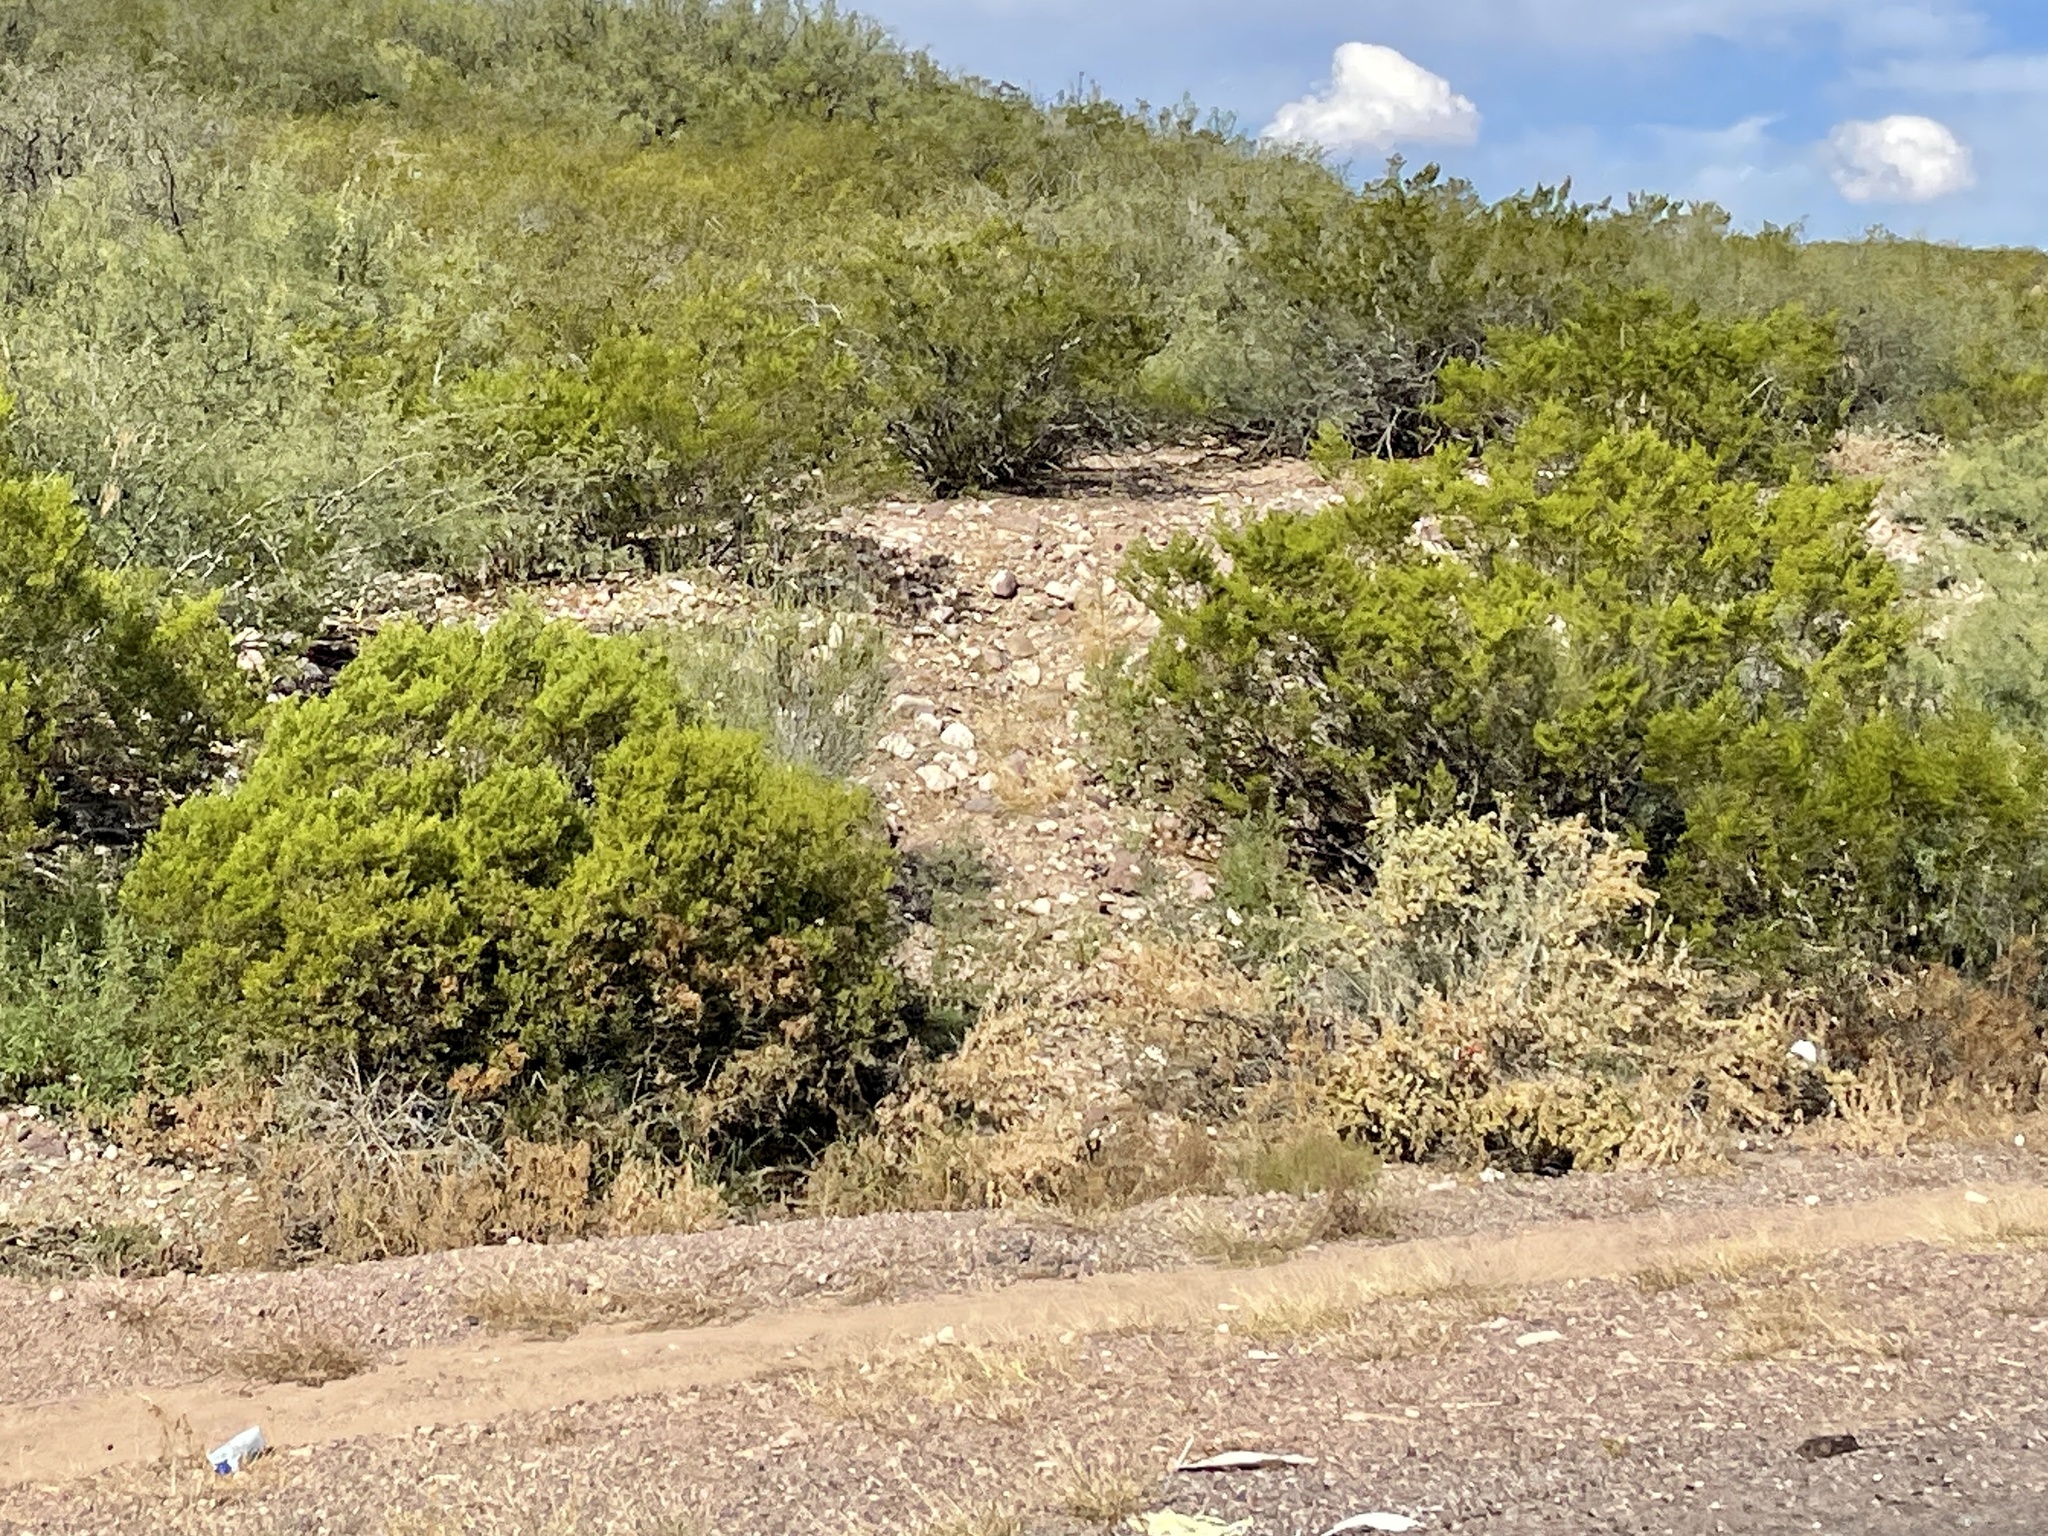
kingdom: Plantae
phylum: Tracheophyta
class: Magnoliopsida
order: Zygophyllales
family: Zygophyllaceae
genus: Larrea
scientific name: Larrea tridentata
